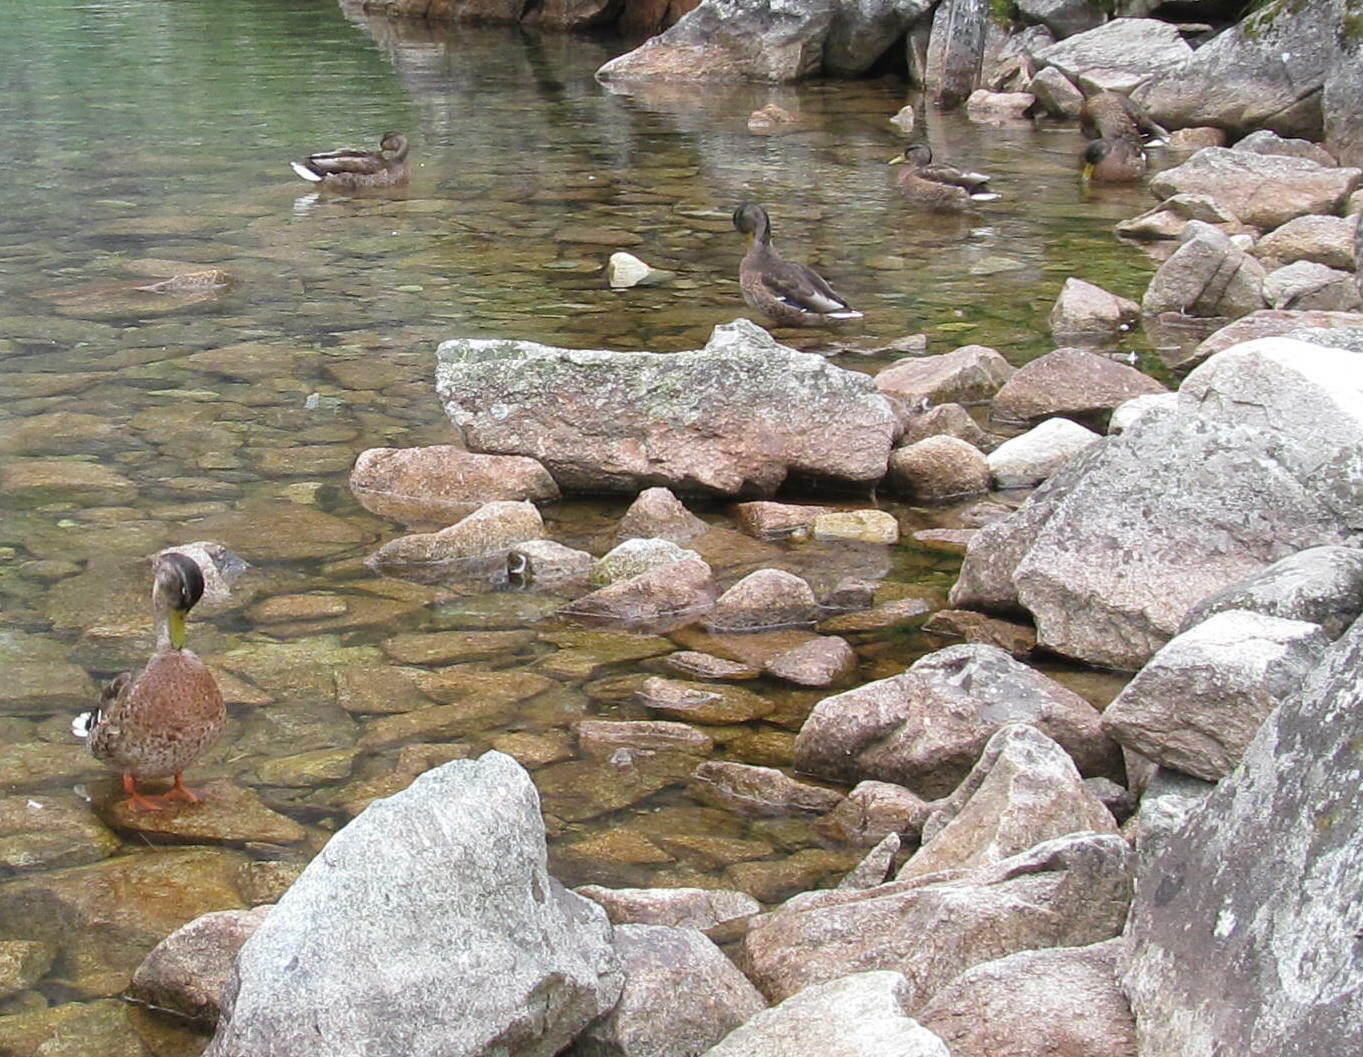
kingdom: Animalia
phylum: Chordata
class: Aves
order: Anseriformes
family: Anatidae
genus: Anas
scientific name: Anas platyrhynchos
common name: Mallard
